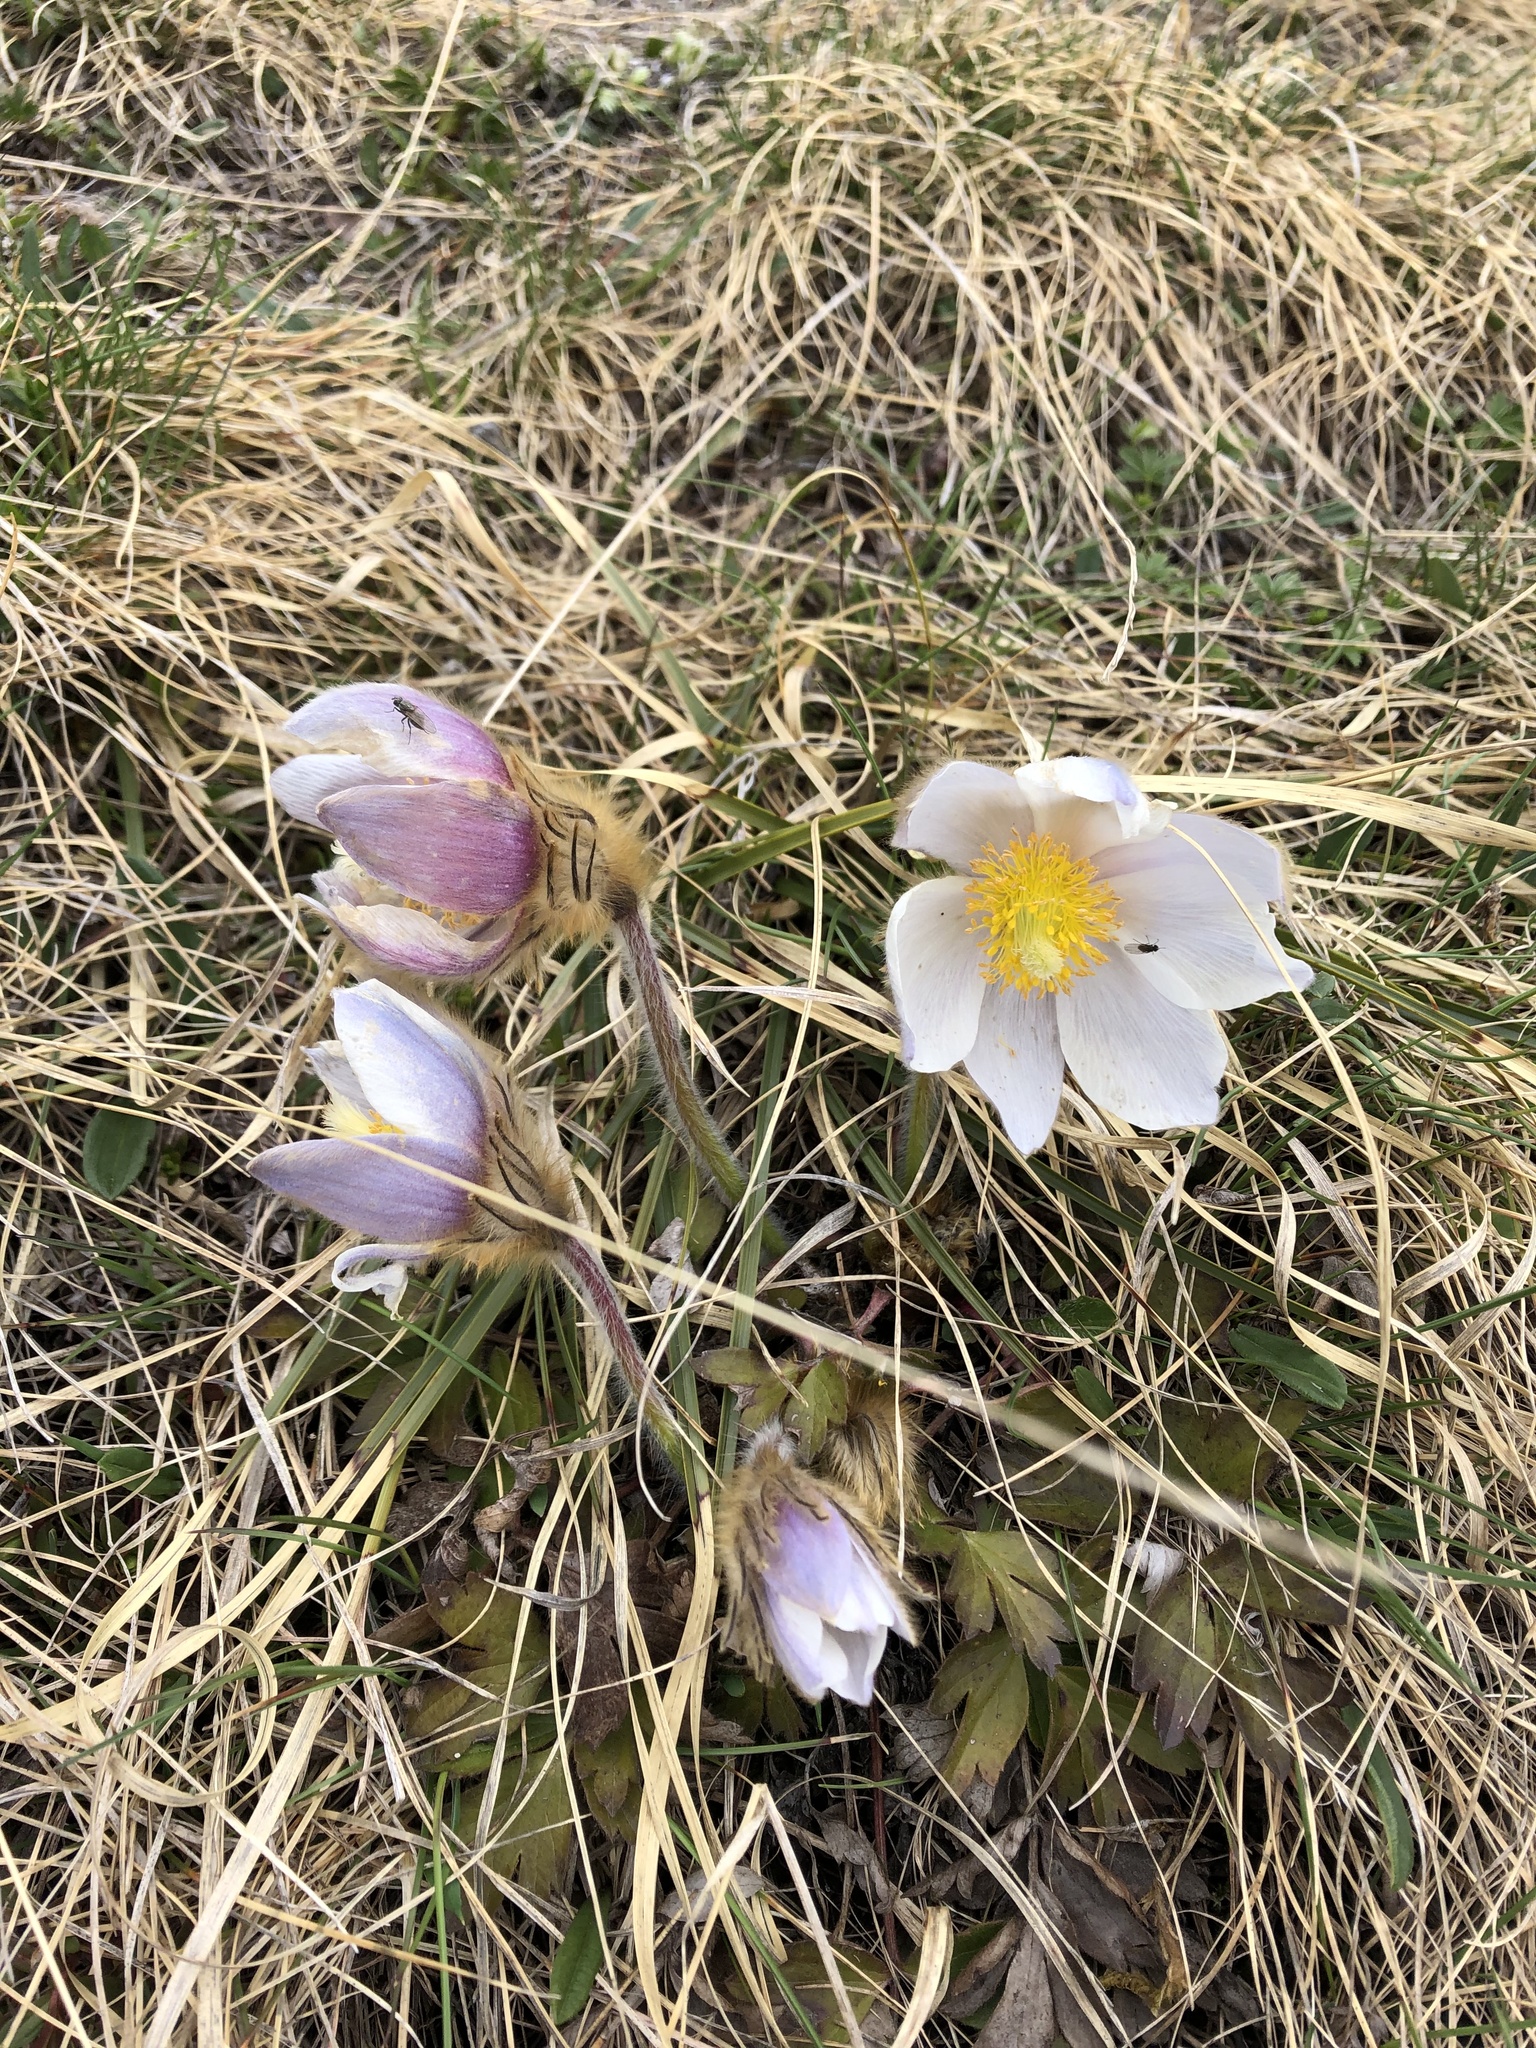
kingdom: Plantae
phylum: Tracheophyta
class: Magnoliopsida
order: Ranunculales
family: Ranunculaceae
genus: Pulsatilla
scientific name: Pulsatilla vernalis
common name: Spring pasque flower
